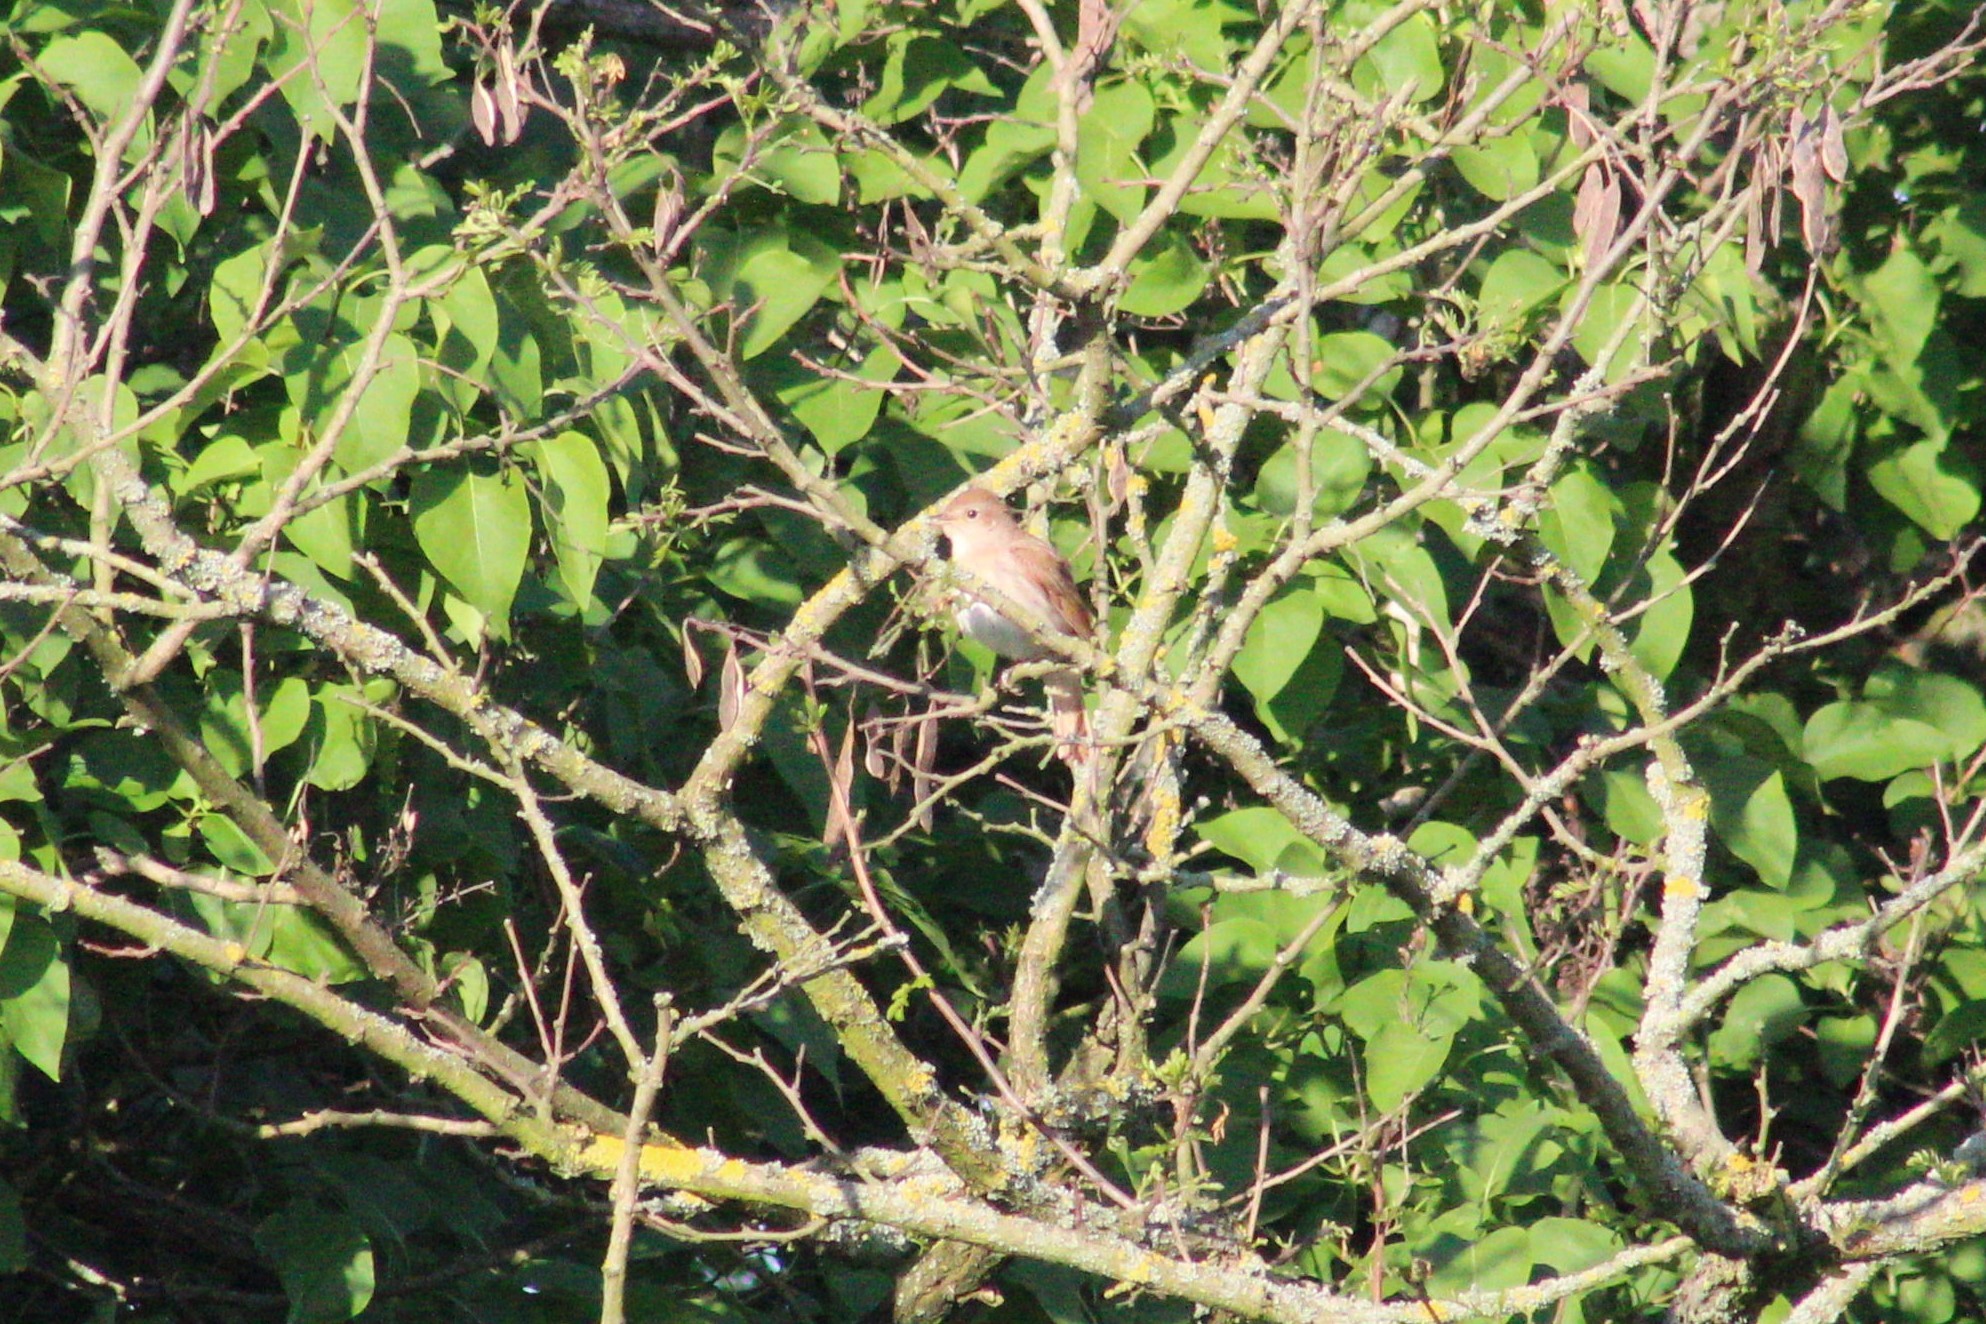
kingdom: Animalia
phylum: Chordata
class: Aves
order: Passeriformes
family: Muscicapidae
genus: Luscinia
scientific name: Luscinia megarhynchos
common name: Common nightingale
